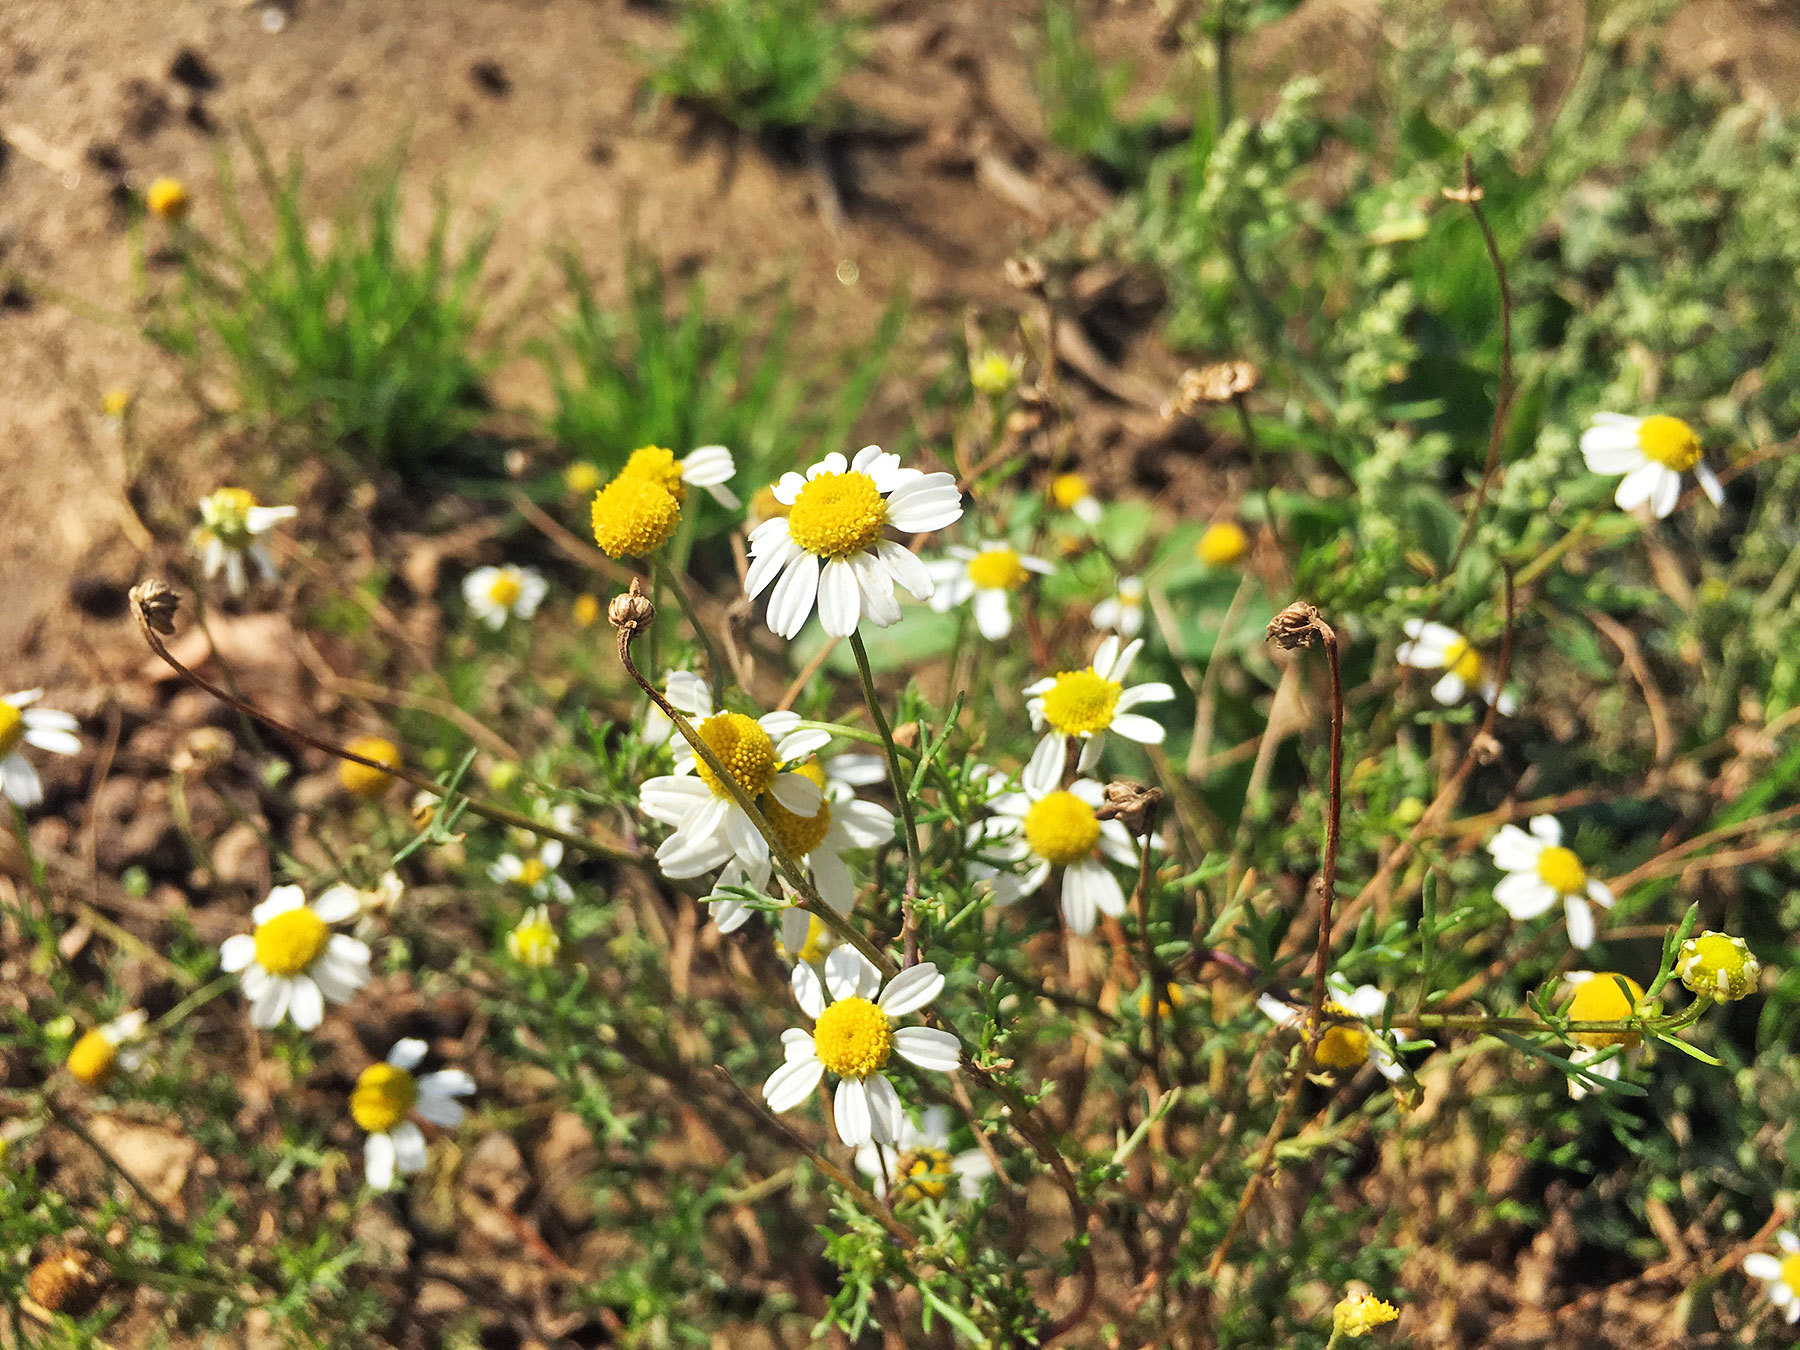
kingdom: Plantae
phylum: Tracheophyta
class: Magnoliopsida
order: Asterales
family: Asteraceae
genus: Matricaria
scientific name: Matricaria chamomilla
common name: Scented mayweed
